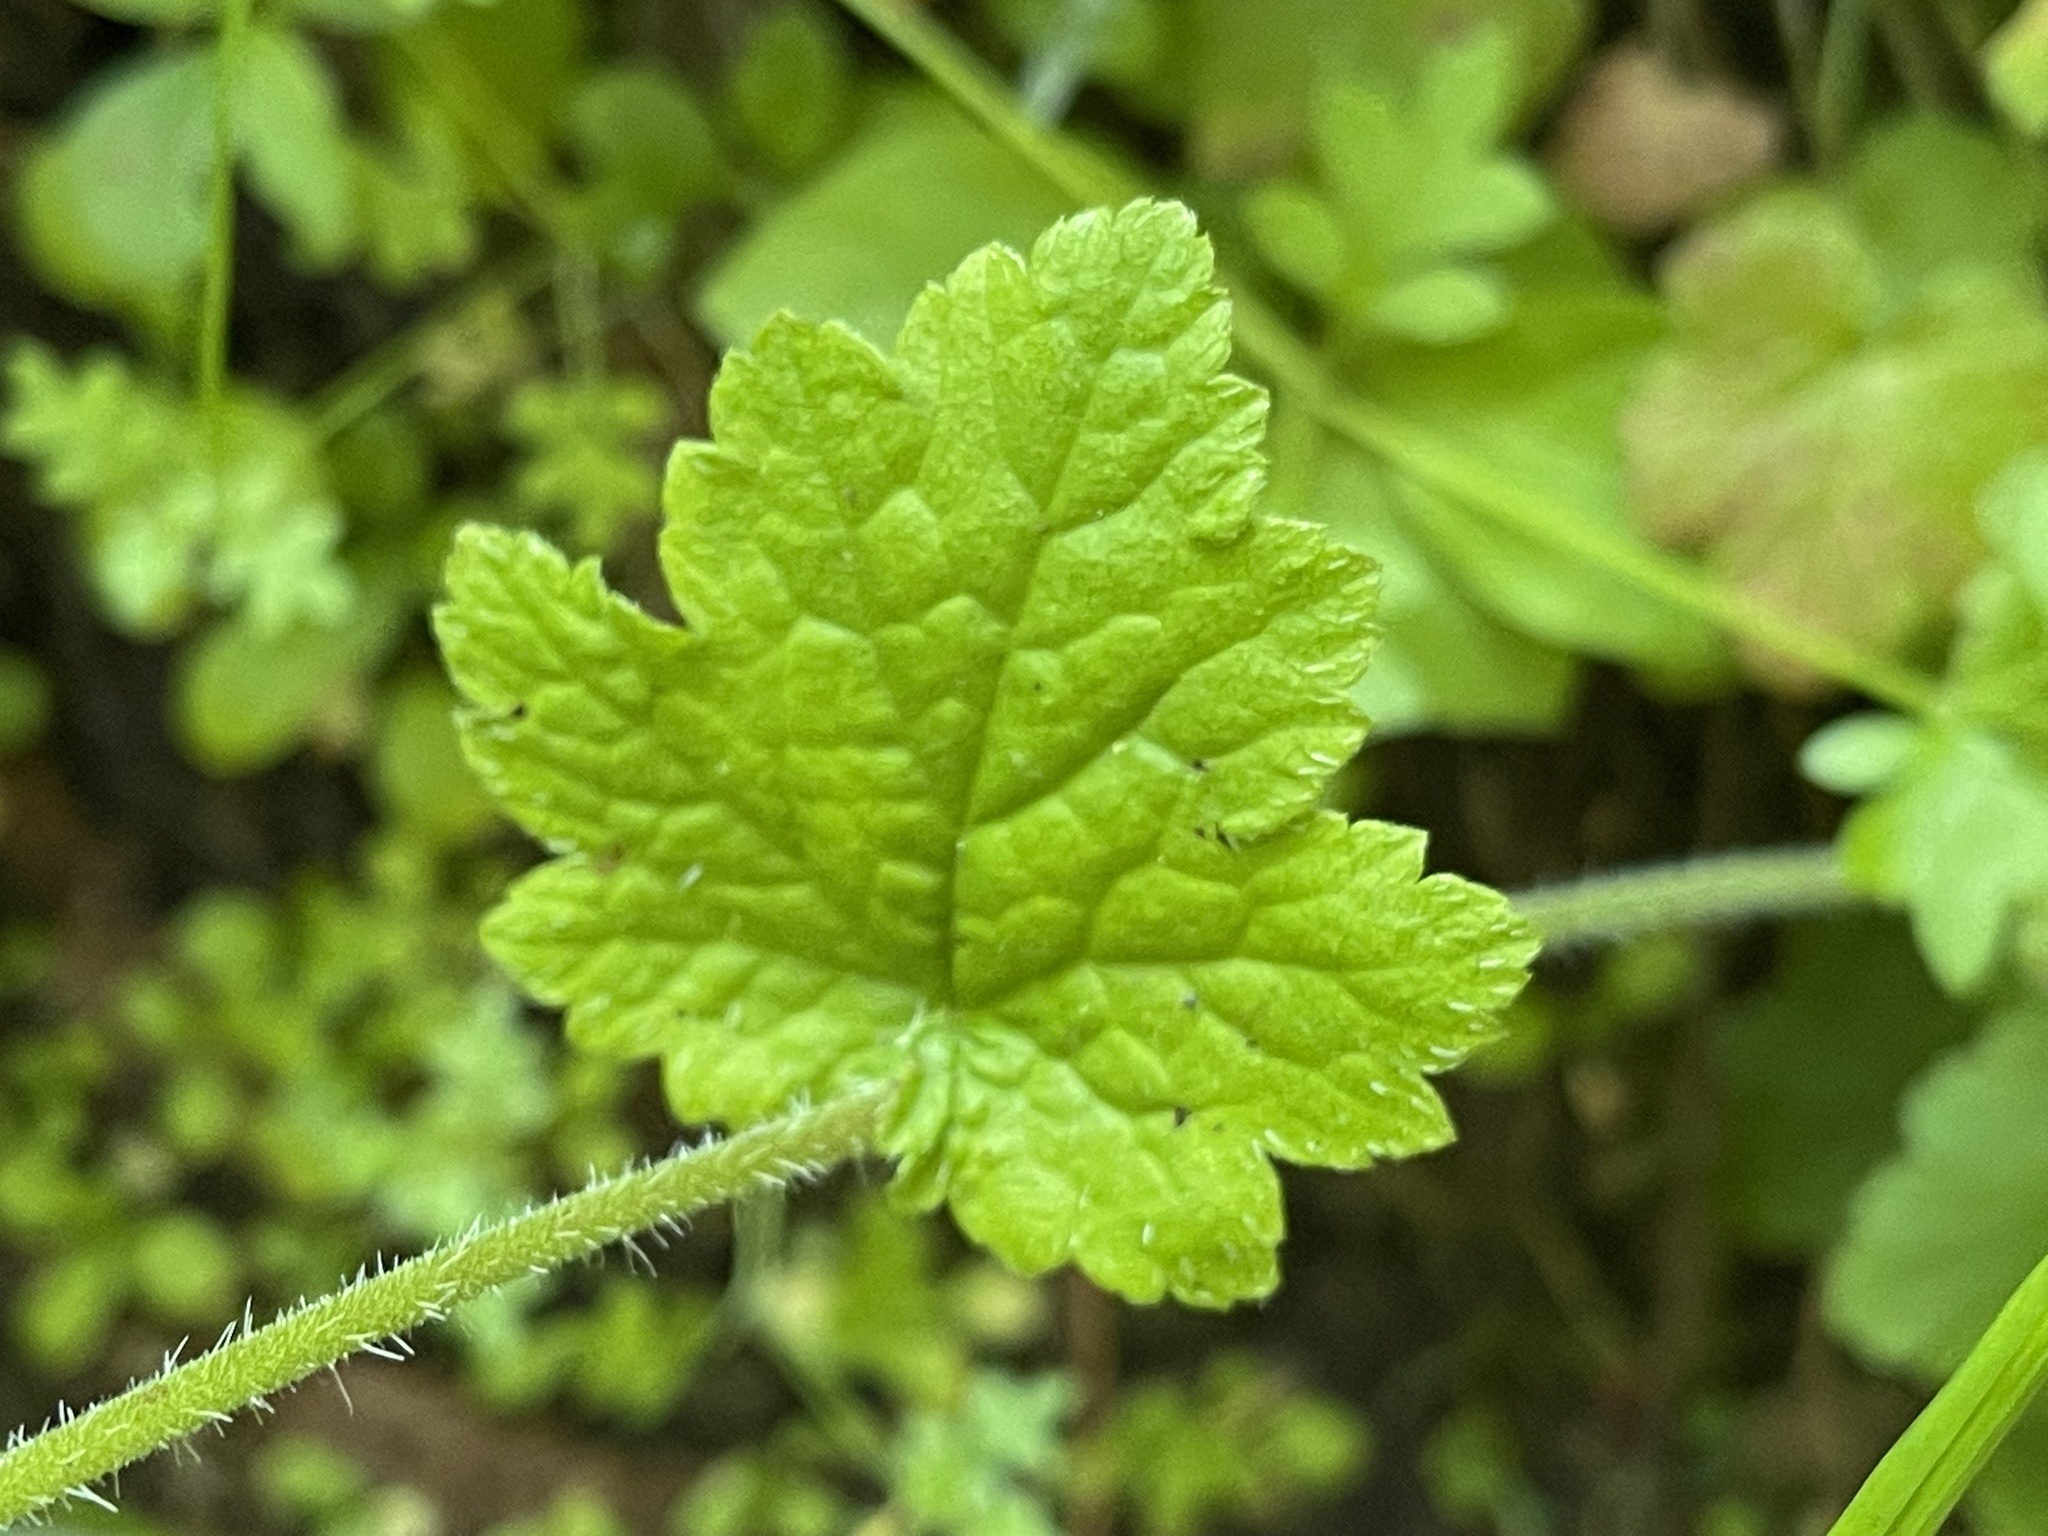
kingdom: Plantae
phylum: Tracheophyta
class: Magnoliopsida
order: Saxifragales
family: Saxifragaceae
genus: Tellima
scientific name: Tellima grandiflora
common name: Fringecups
